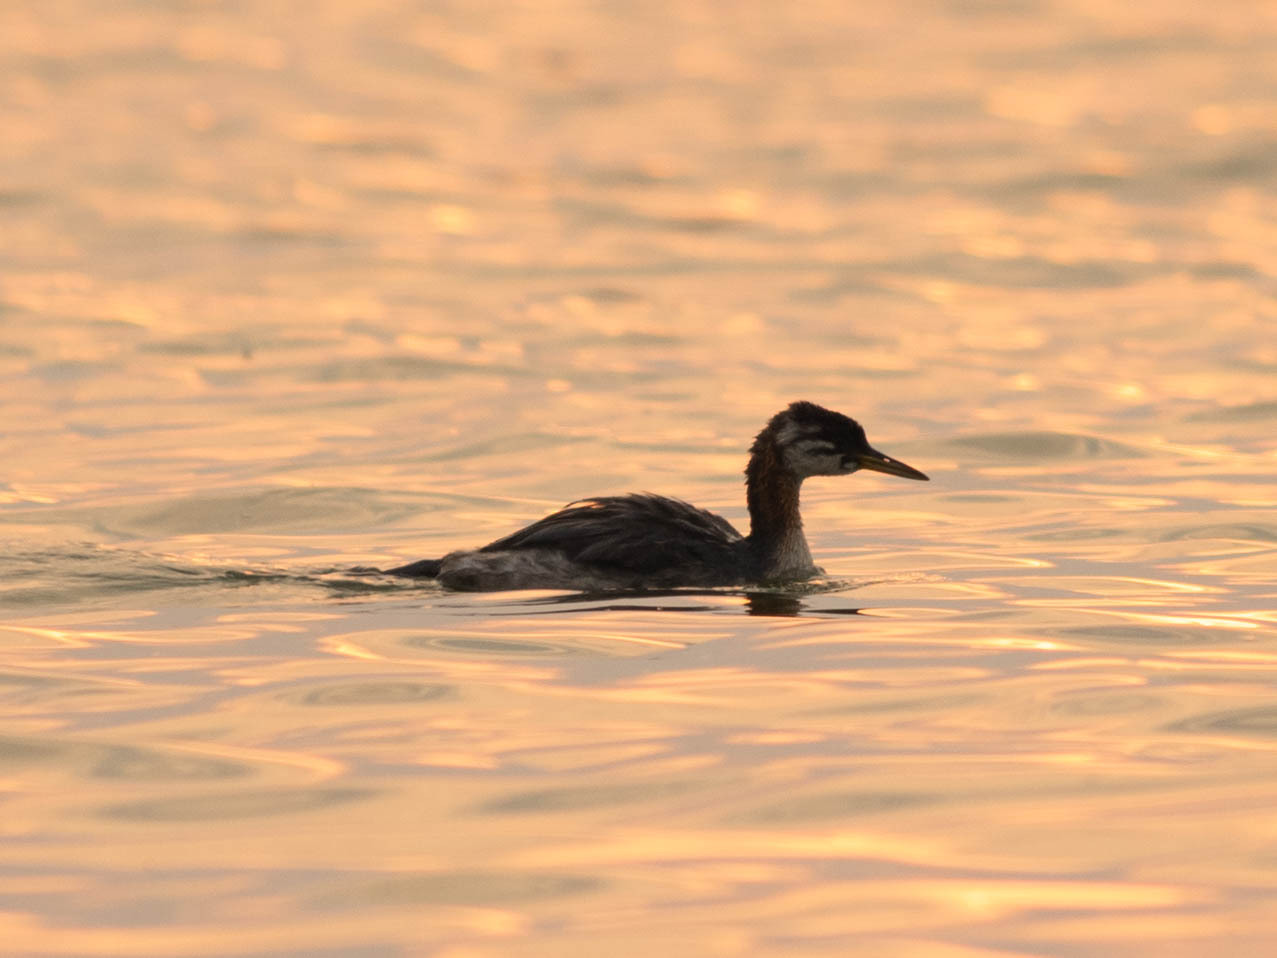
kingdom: Animalia
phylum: Chordata
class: Aves
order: Podicipediformes
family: Podicipedidae
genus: Podiceps
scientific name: Podiceps grisegena
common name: Red-necked grebe
